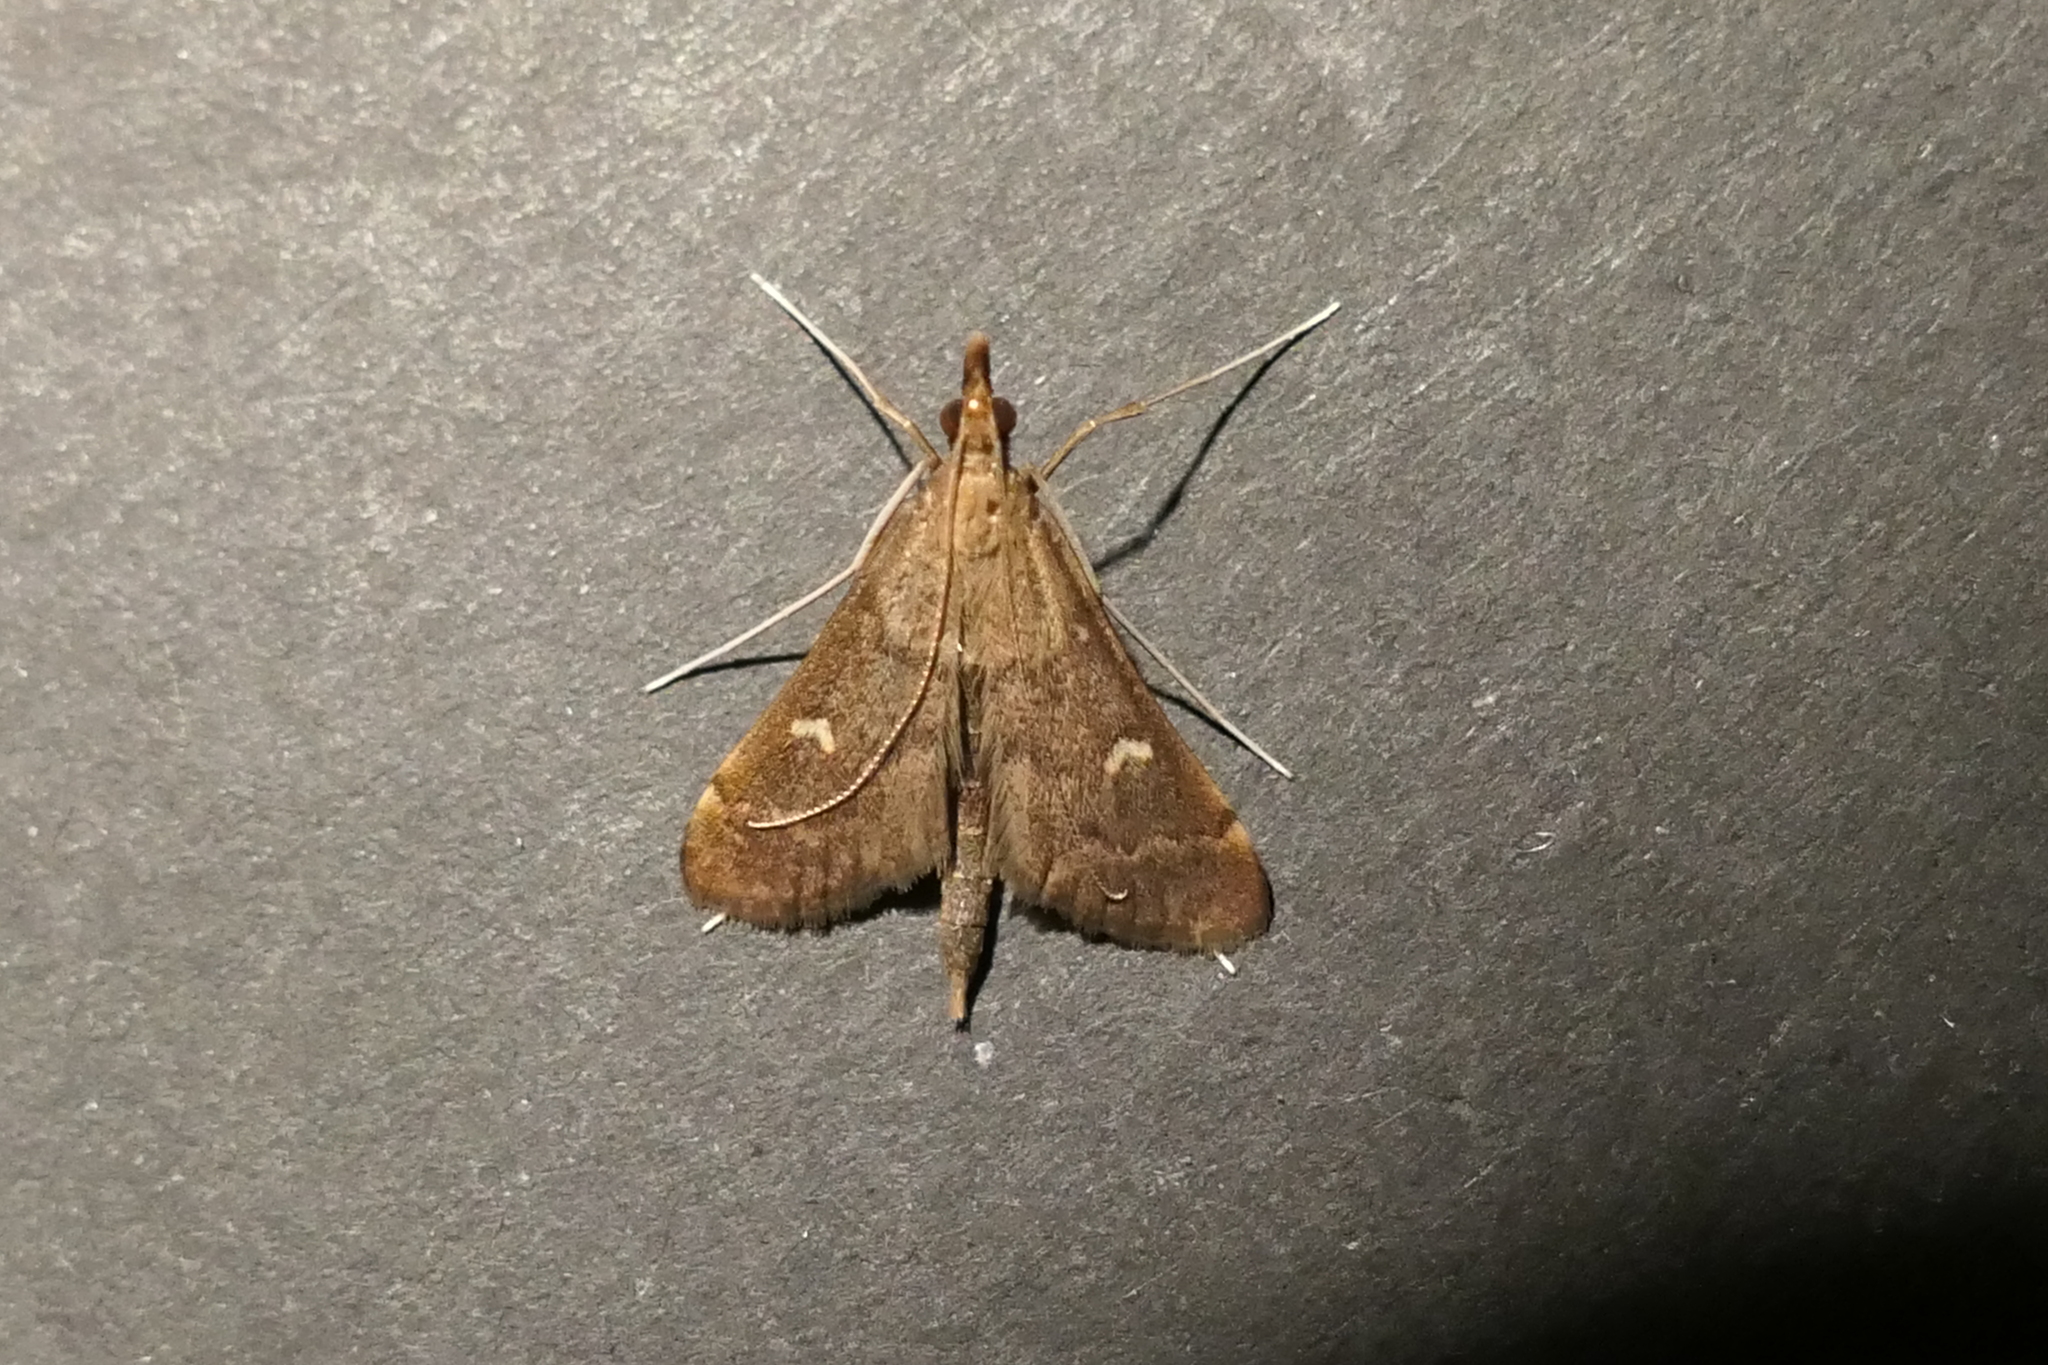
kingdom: Animalia
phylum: Arthropoda
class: Insecta
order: Lepidoptera
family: Crambidae
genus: Stenia
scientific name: Stenia Dolicharthria punctalis
